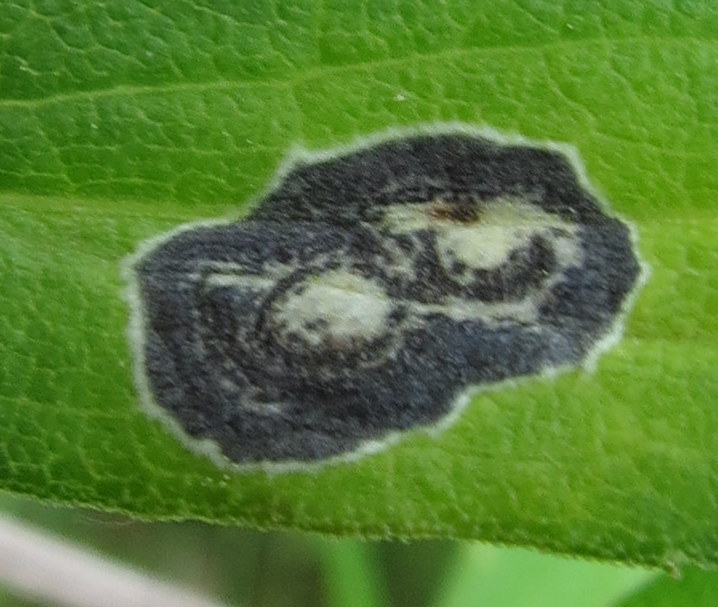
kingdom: Animalia
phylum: Arthropoda
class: Insecta
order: Diptera
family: Cecidomyiidae
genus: Asteromyia
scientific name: Asteromyia carbonifera
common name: Carbonifera goldenrod gall midge
